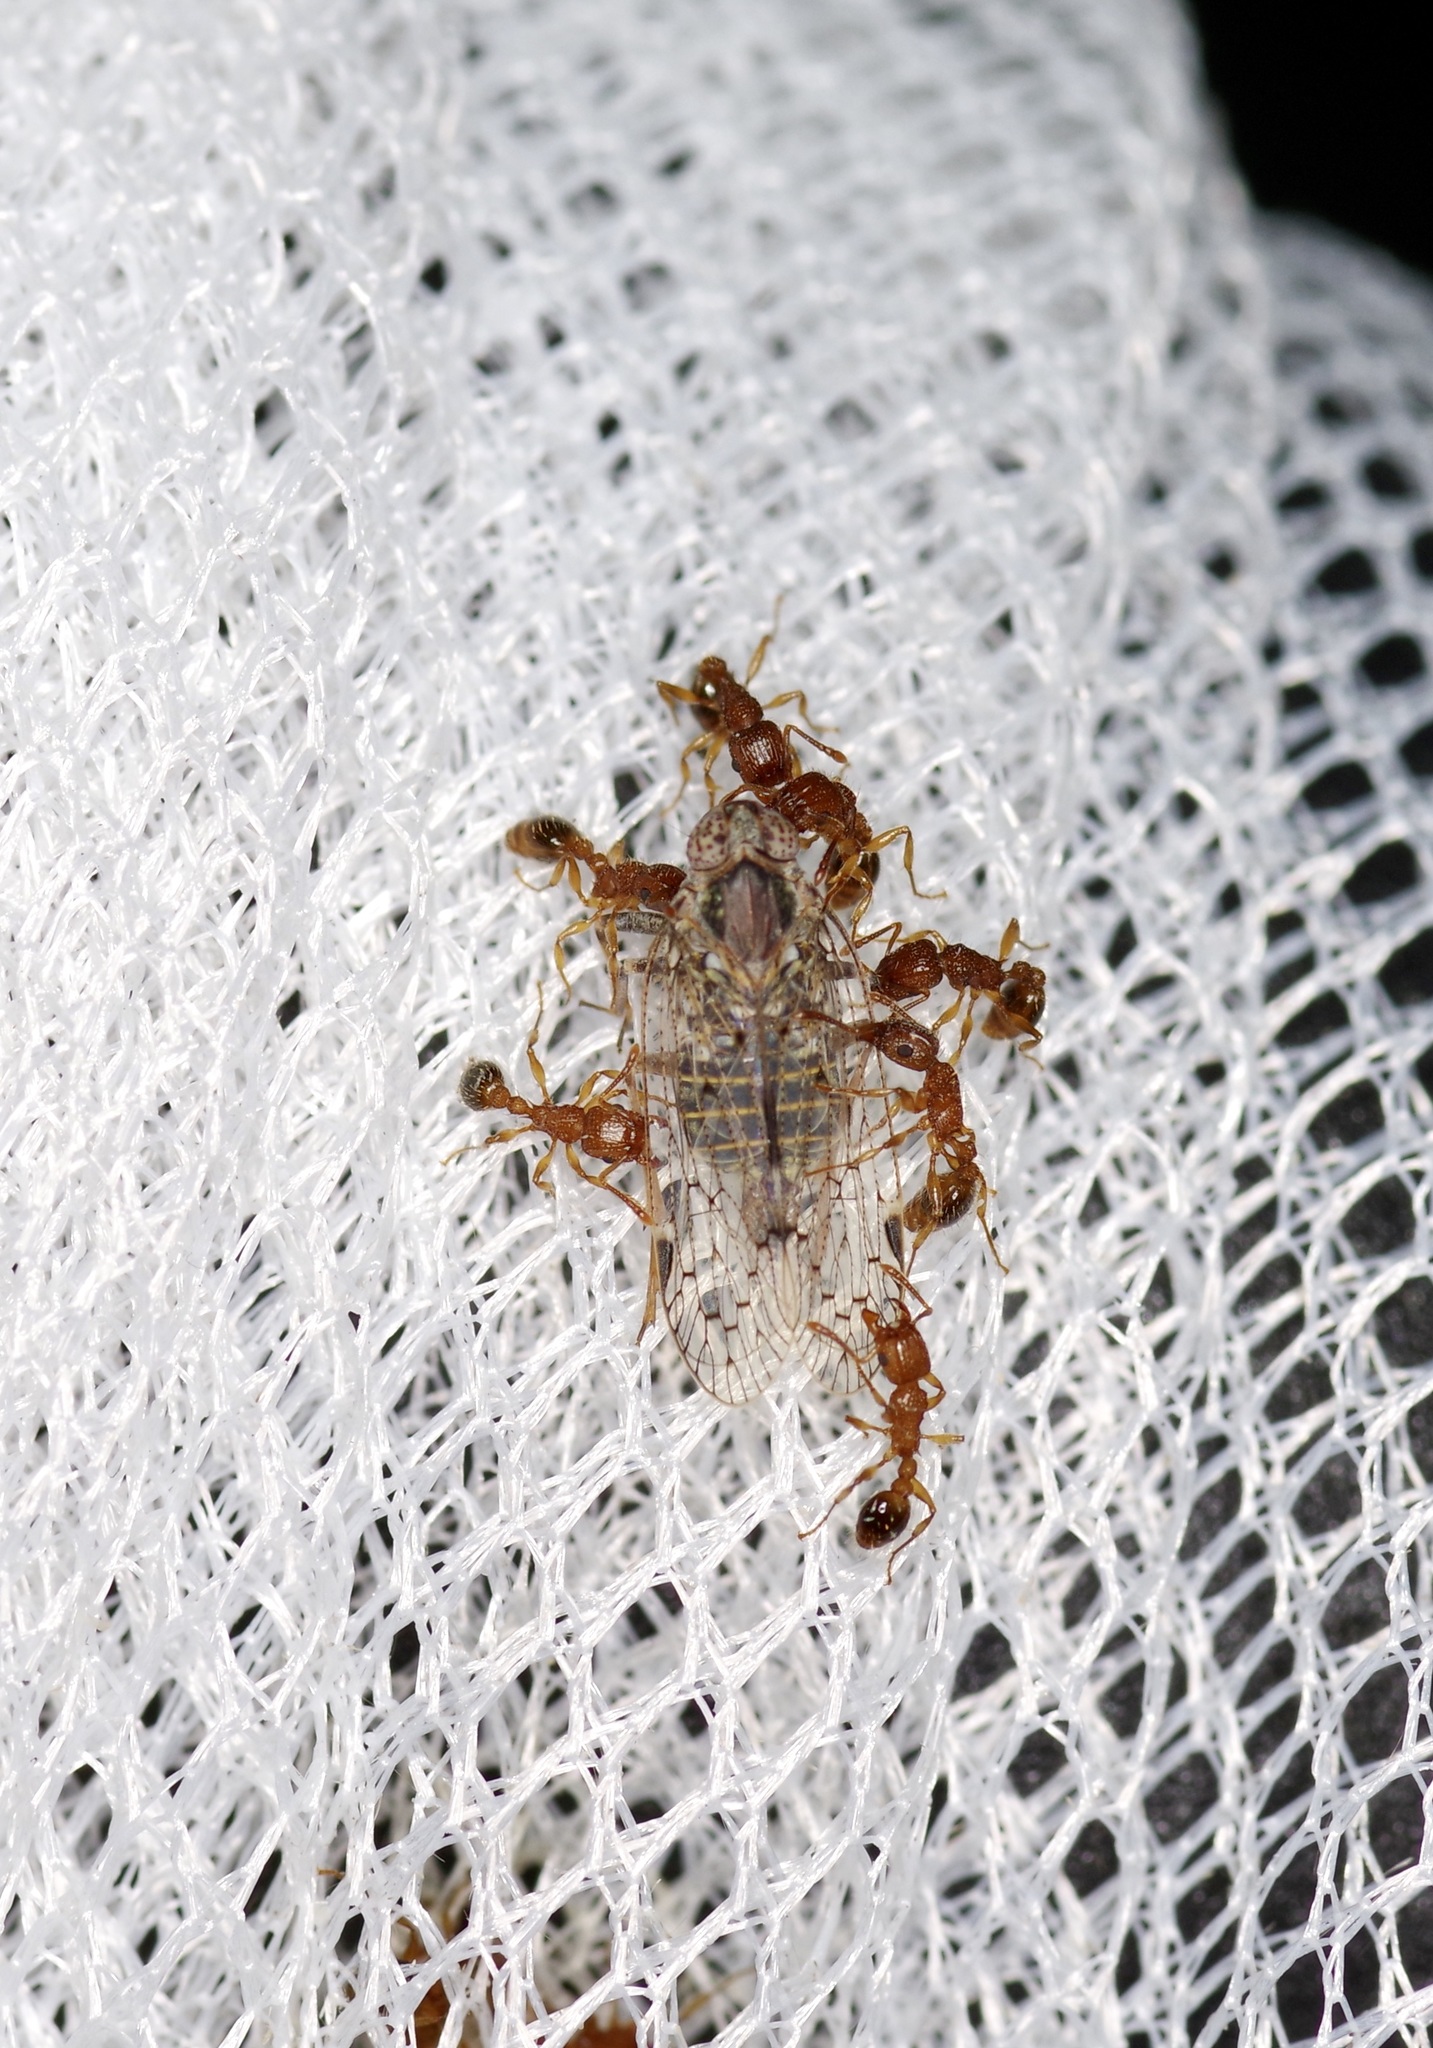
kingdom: Animalia
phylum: Arthropoda
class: Insecta
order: Hymenoptera
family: Formicidae
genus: Tetramorium
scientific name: Tetramorium bicarinatum
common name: Guinea ant
